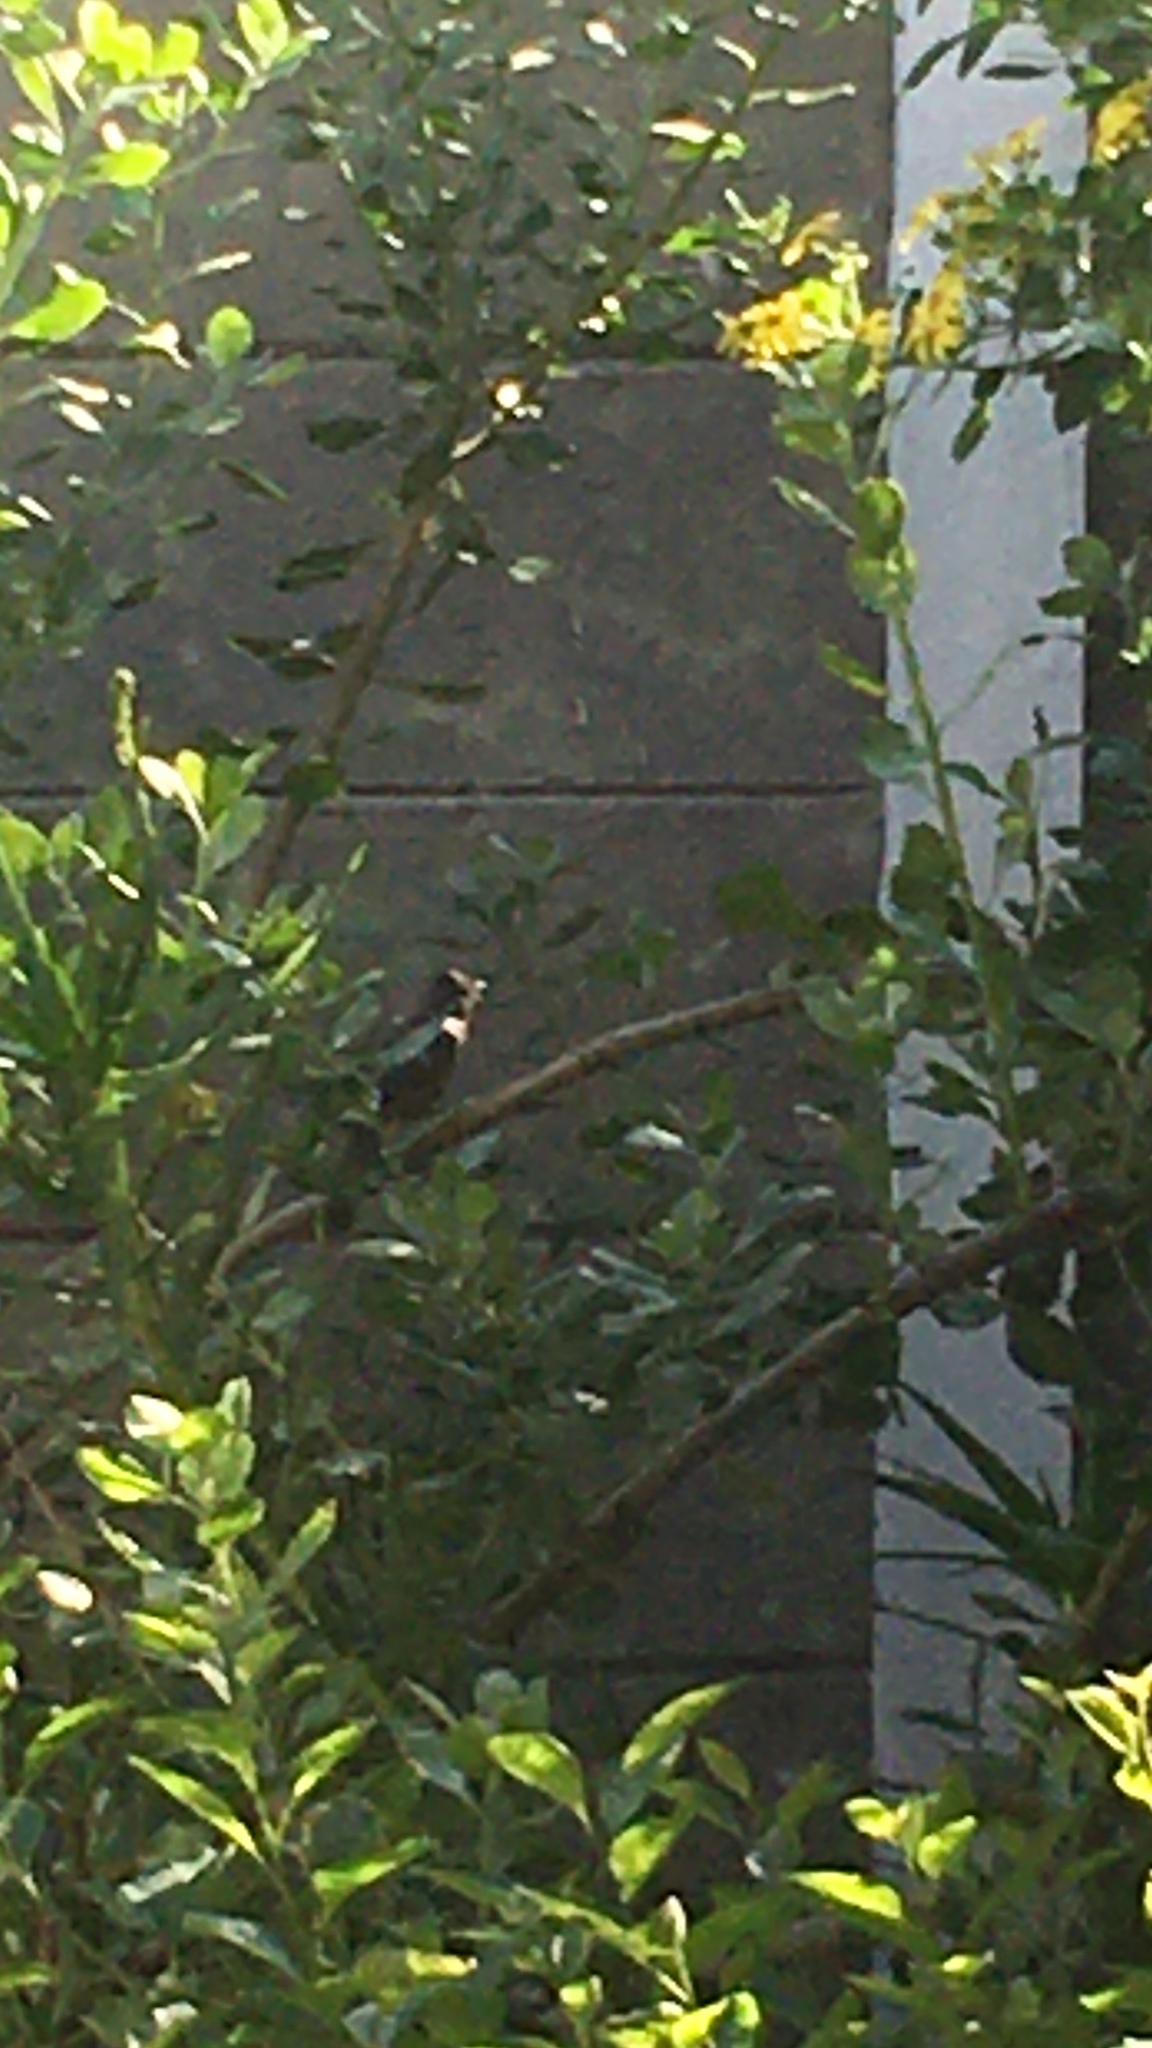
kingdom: Animalia
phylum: Chordata
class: Aves
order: Passeriformes
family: Pycnonotidae
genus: Pycnonotus
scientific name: Pycnonotus capensis
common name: Cape bulbul
